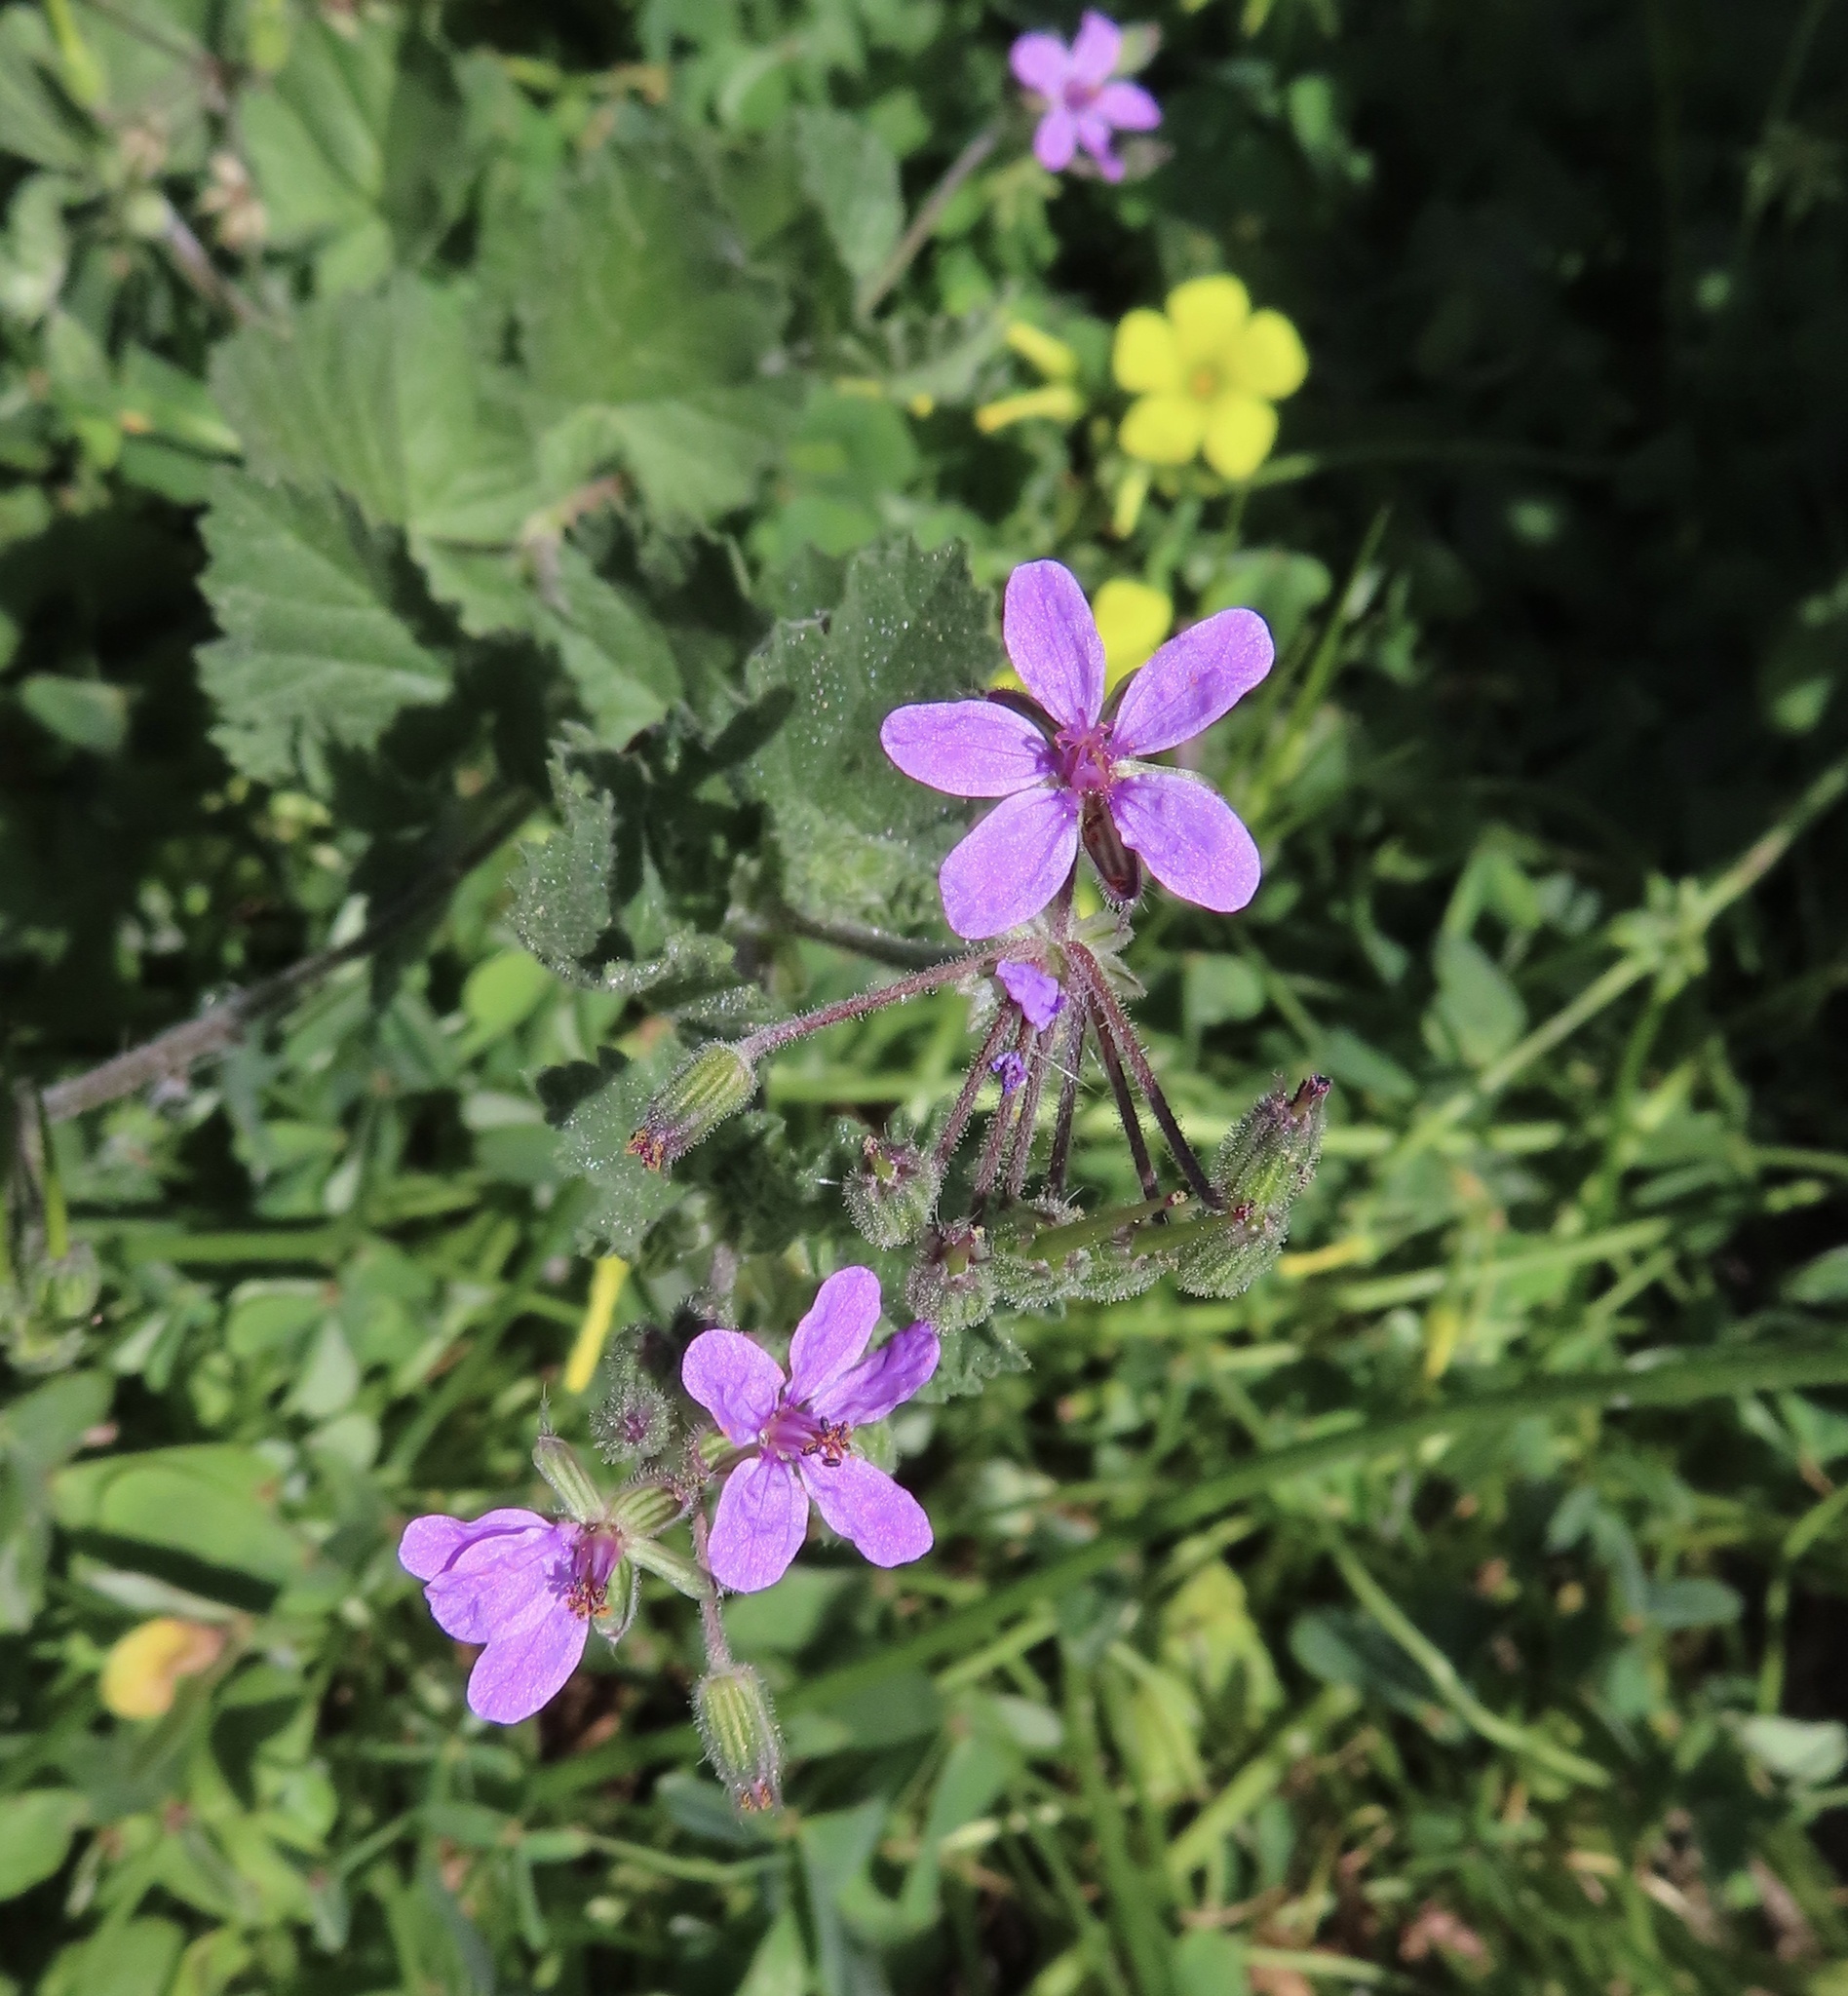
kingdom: Plantae
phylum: Tracheophyta
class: Magnoliopsida
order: Geraniales
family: Geraniaceae
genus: Erodium
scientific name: Erodium malacoides
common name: Soft stork's-bill
